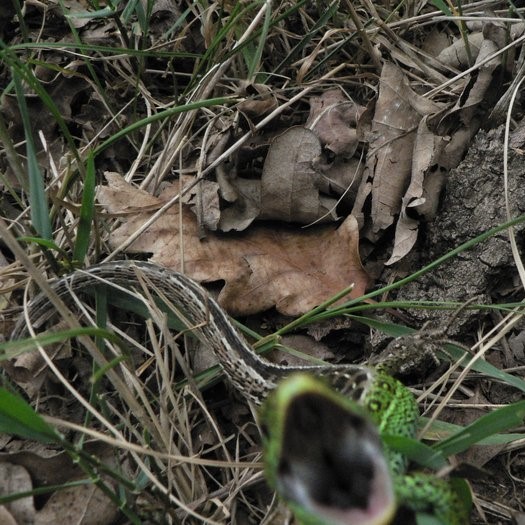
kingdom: Animalia
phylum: Chordata
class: Squamata
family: Lacertidae
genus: Lacerta
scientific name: Lacerta agilis
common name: Sand lizard
